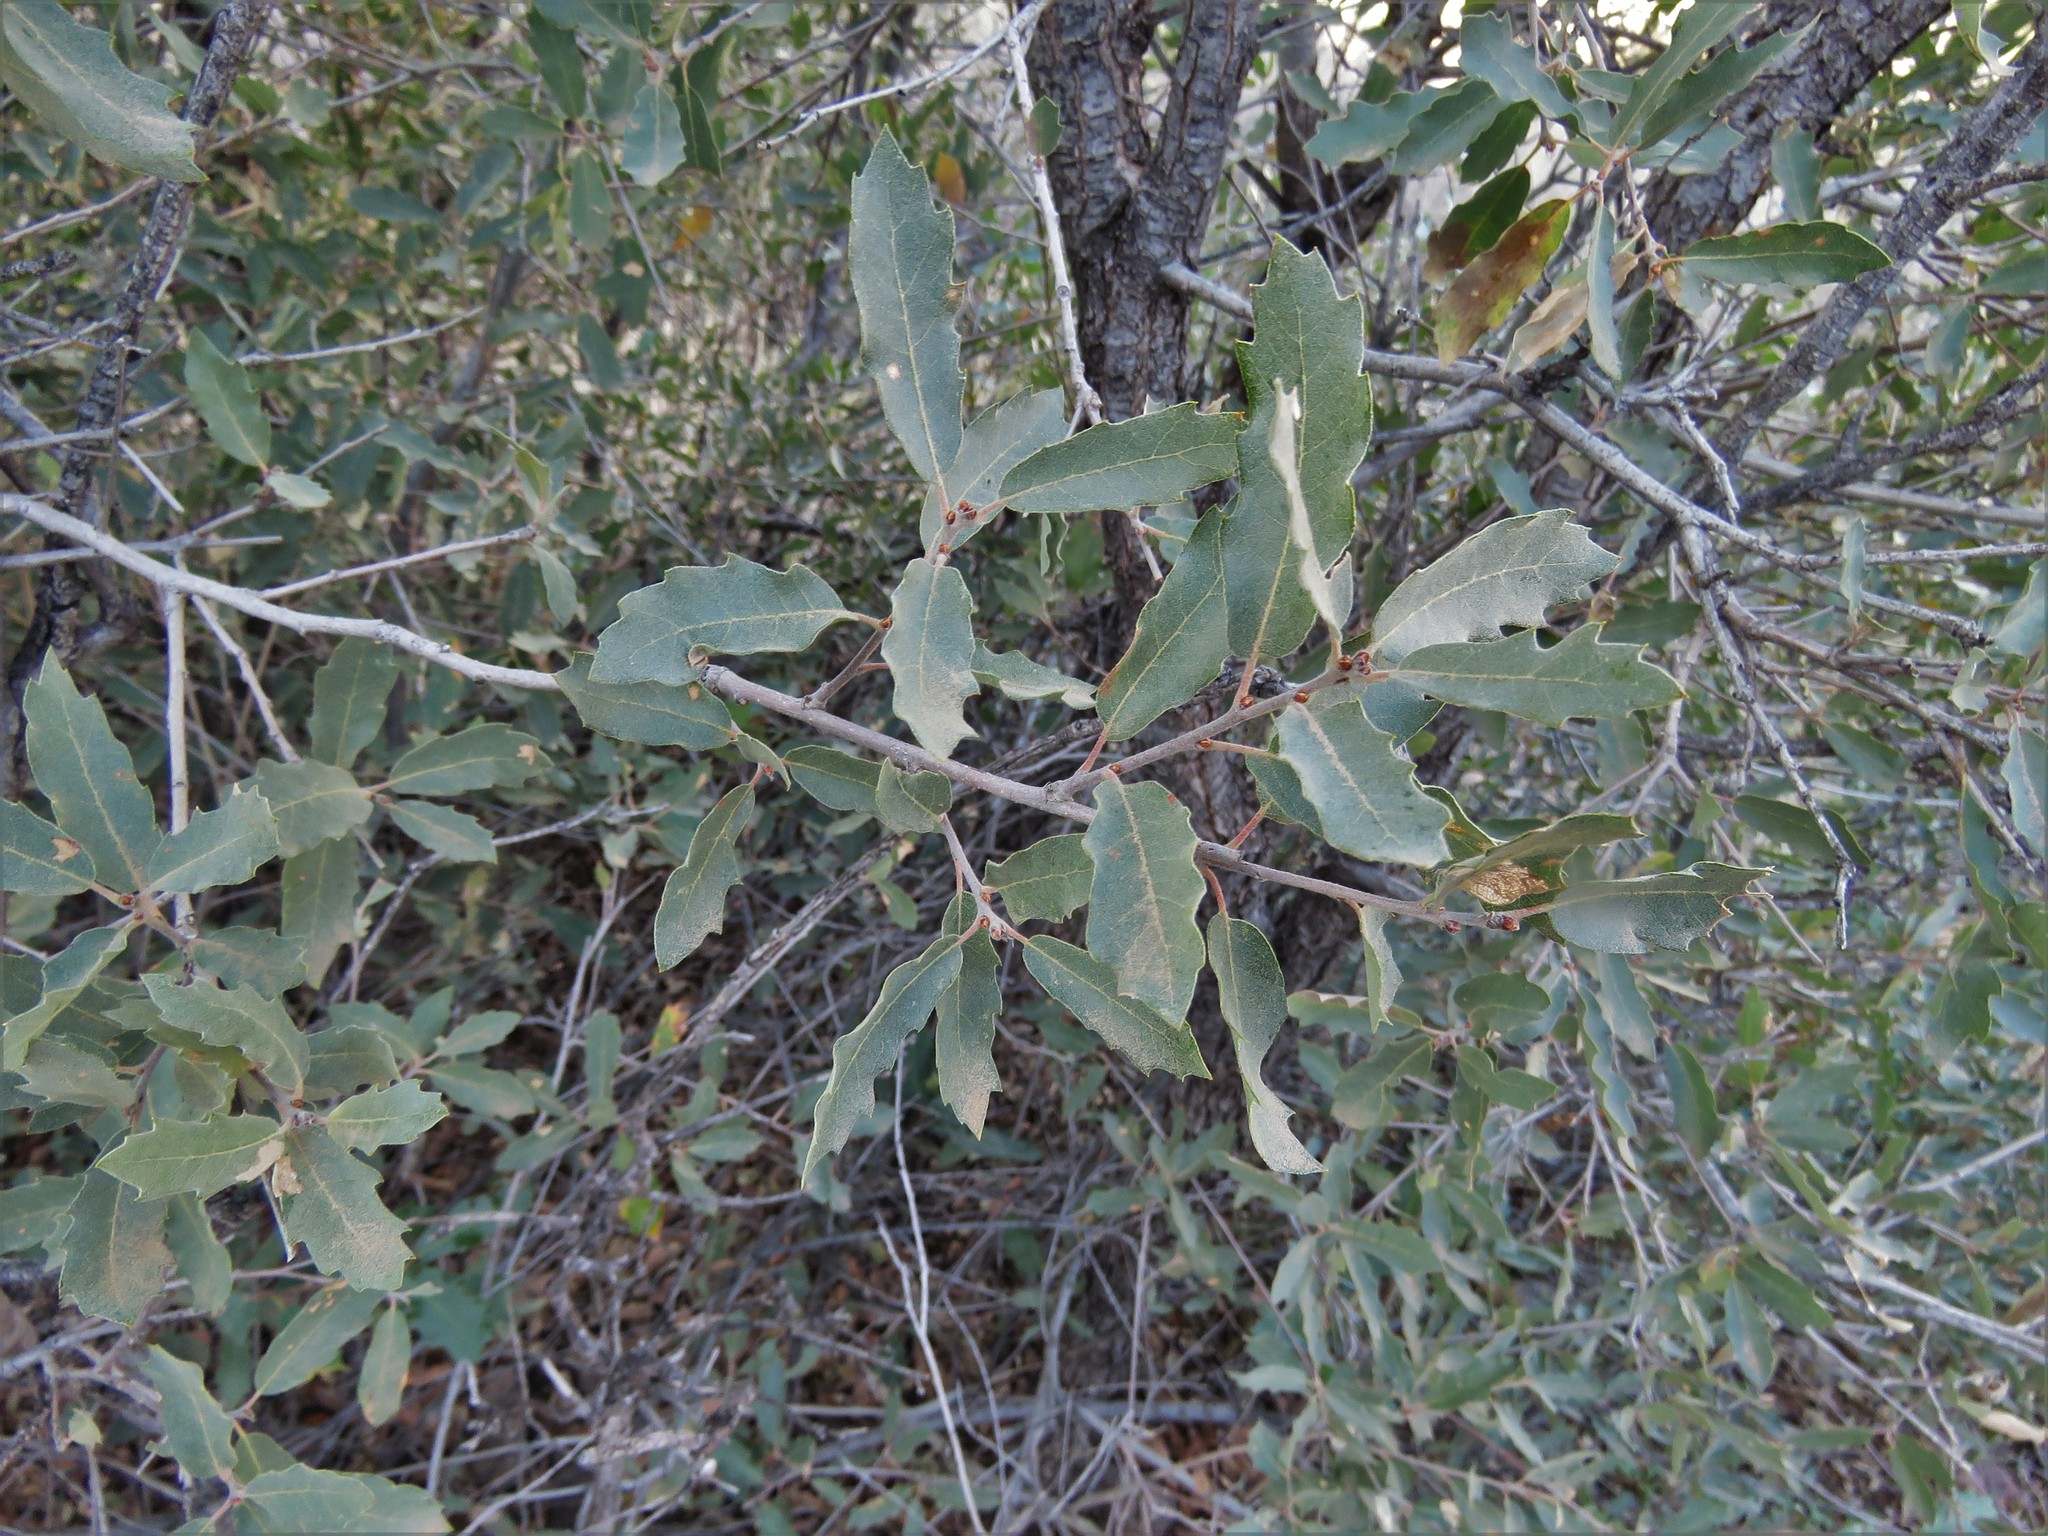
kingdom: Plantae
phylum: Tracheophyta
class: Magnoliopsida
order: Fagales
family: Fagaceae
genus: Quercus
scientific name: Quercus grisea
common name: Gray oak
